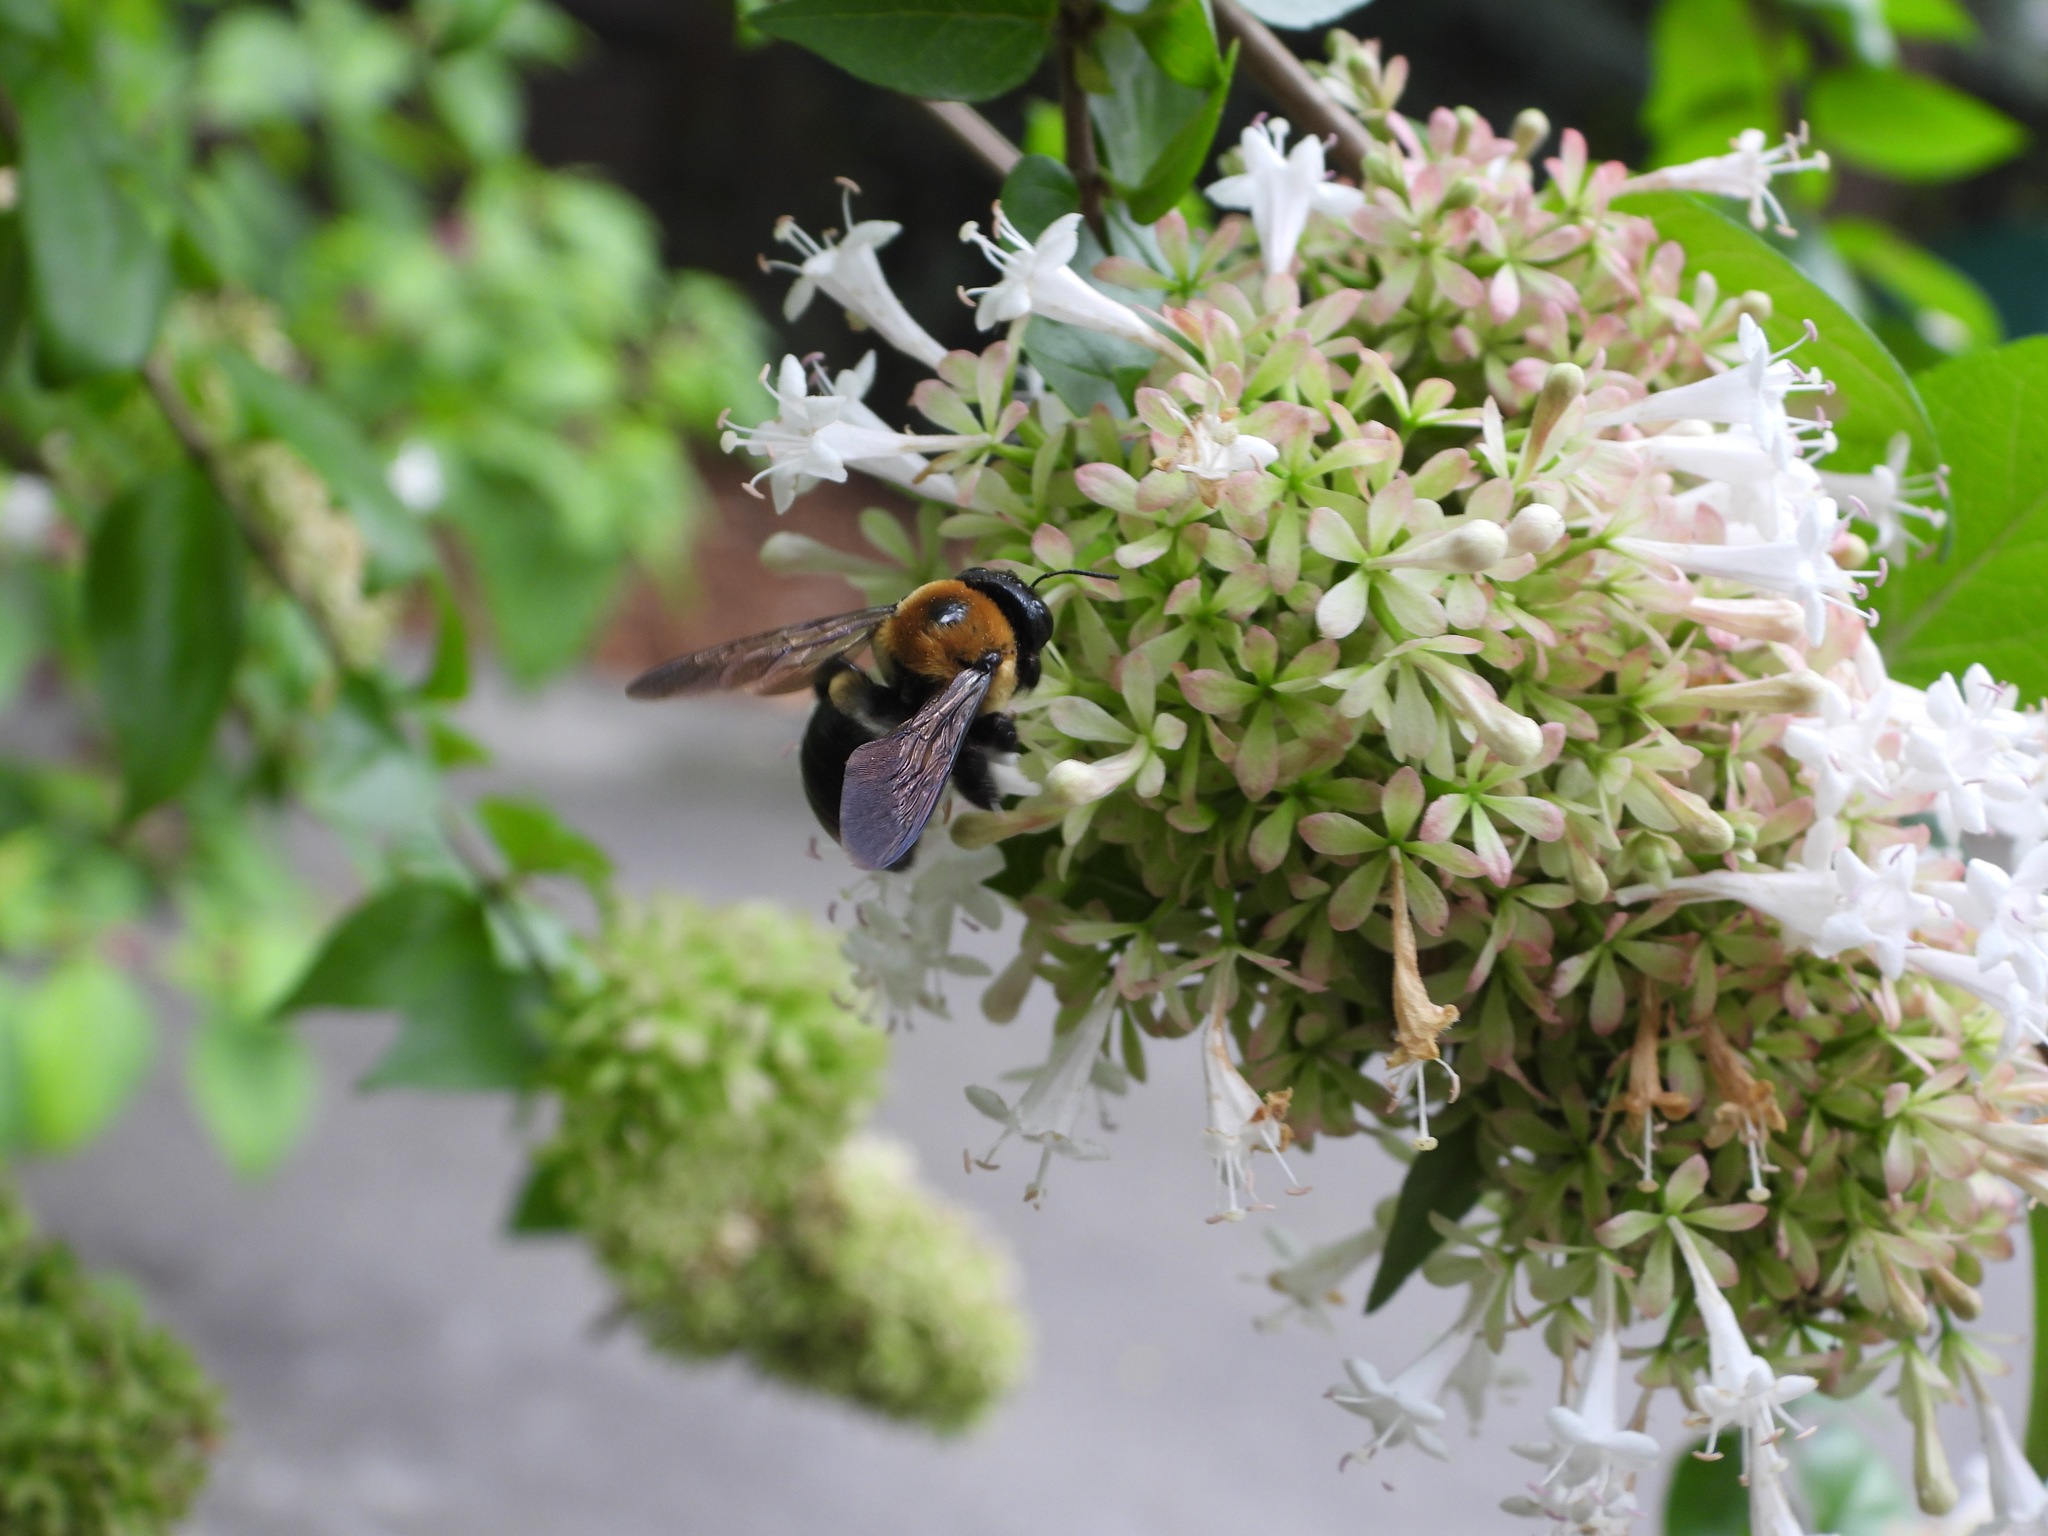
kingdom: Animalia
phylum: Arthropoda
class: Insecta
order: Hymenoptera
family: Apidae
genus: Xylocopa
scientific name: Xylocopa virginica
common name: Carpenter bee
